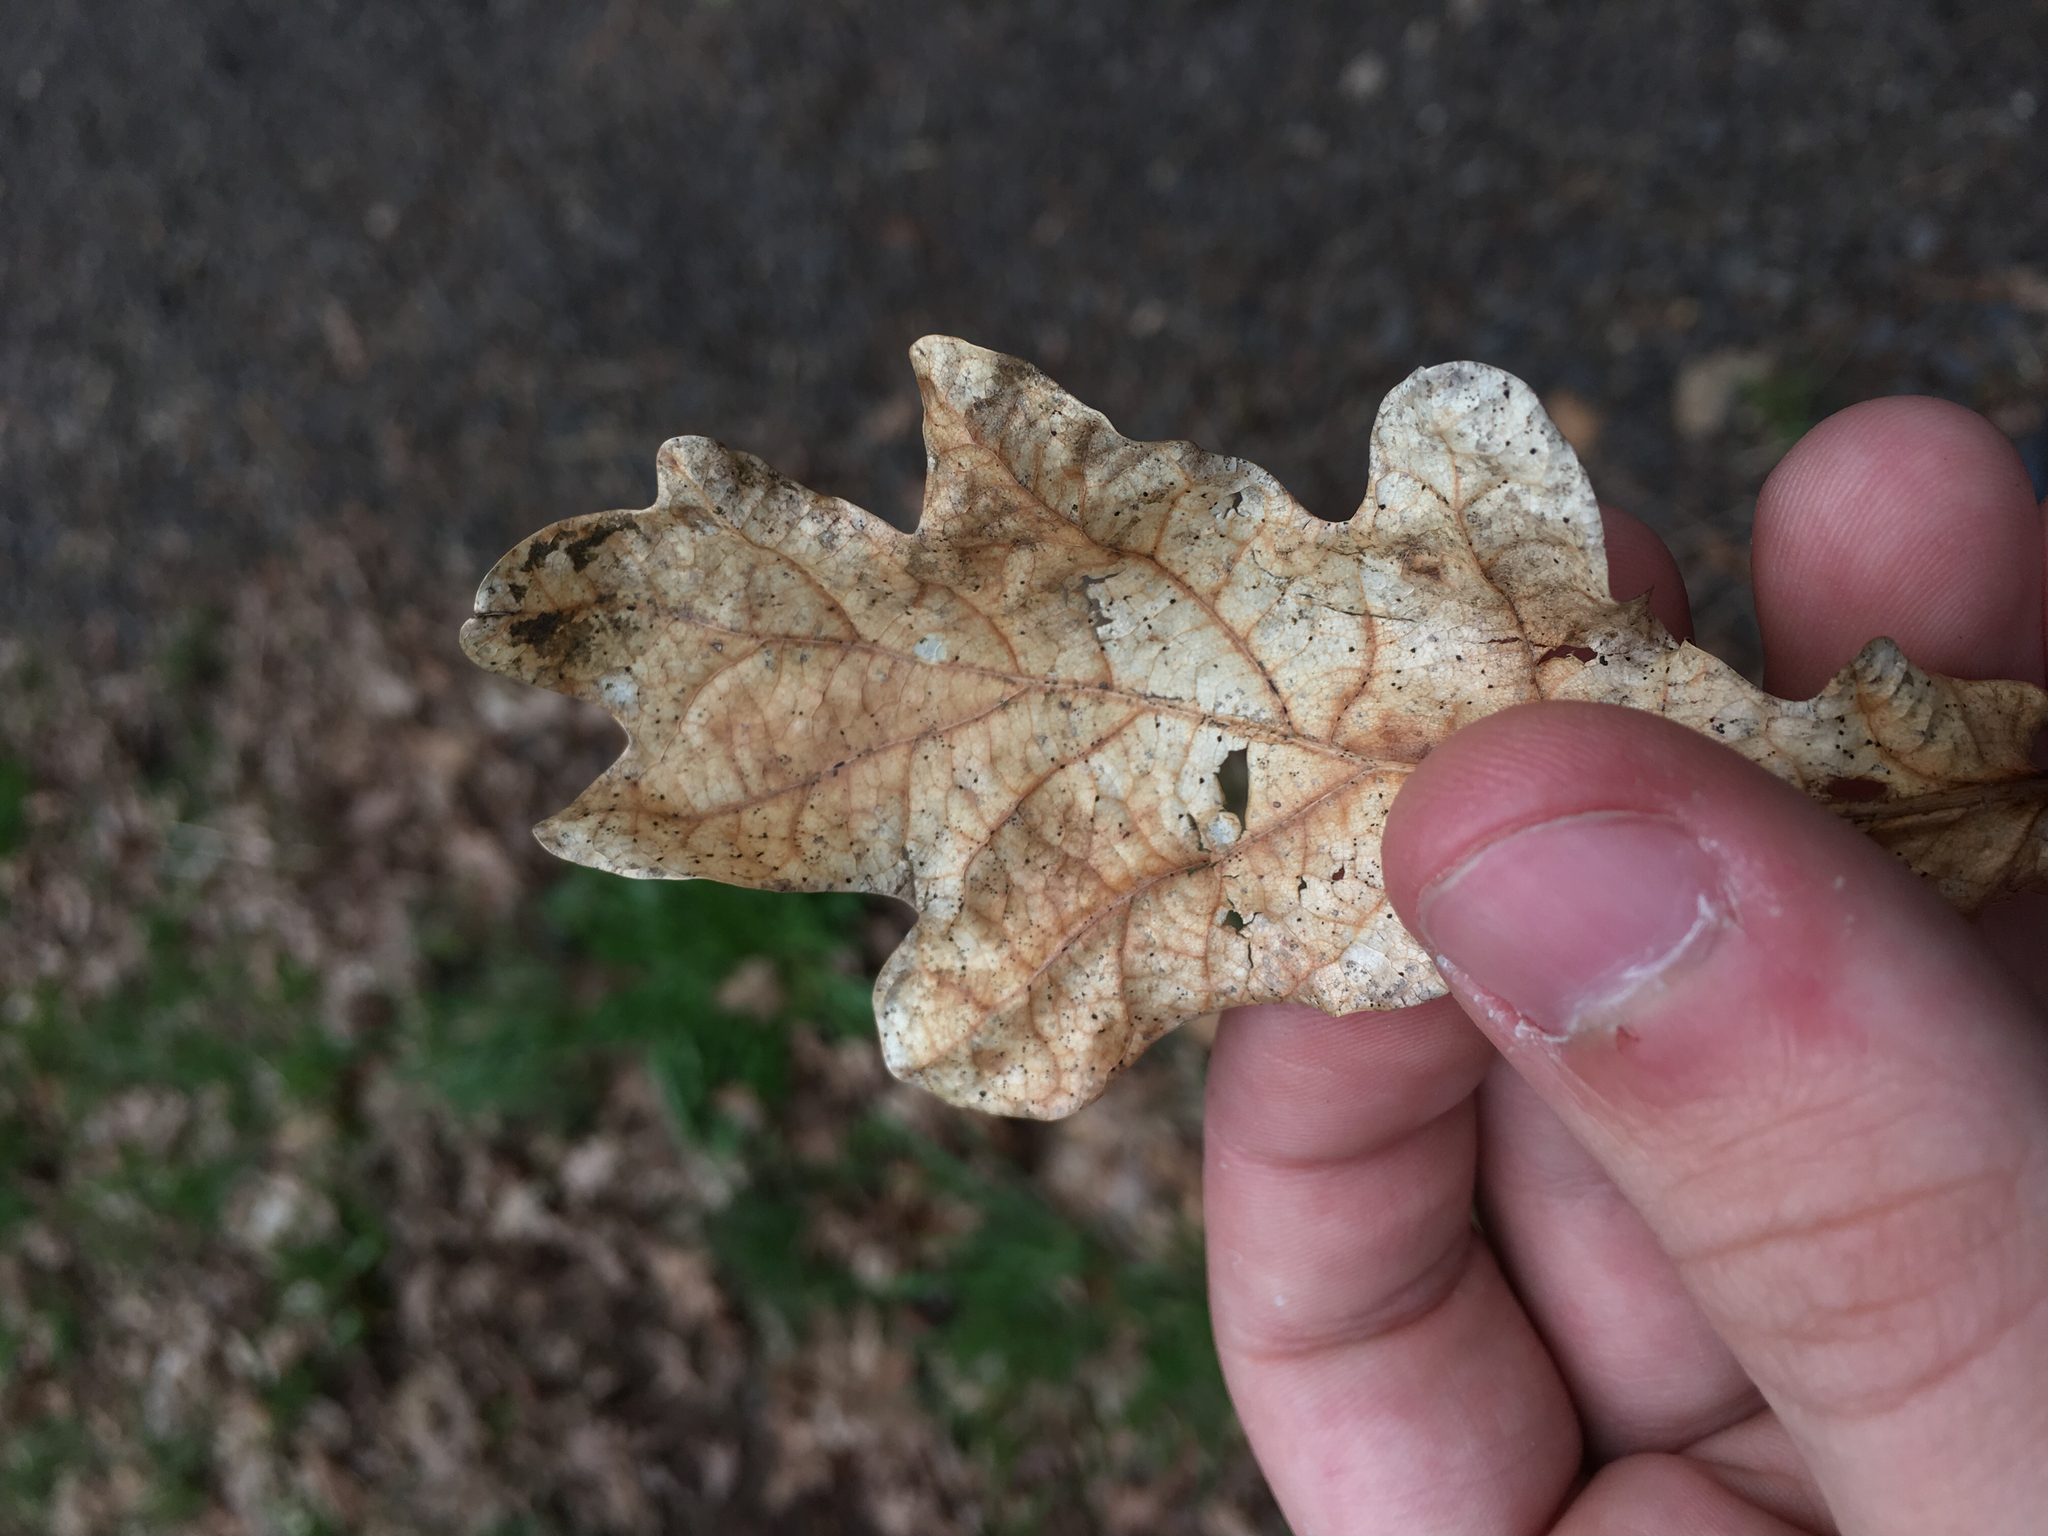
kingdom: Plantae
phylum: Tracheophyta
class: Magnoliopsida
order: Fagales
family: Fagaceae
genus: Quercus
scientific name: Quercus robur
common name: Pedunculate oak
